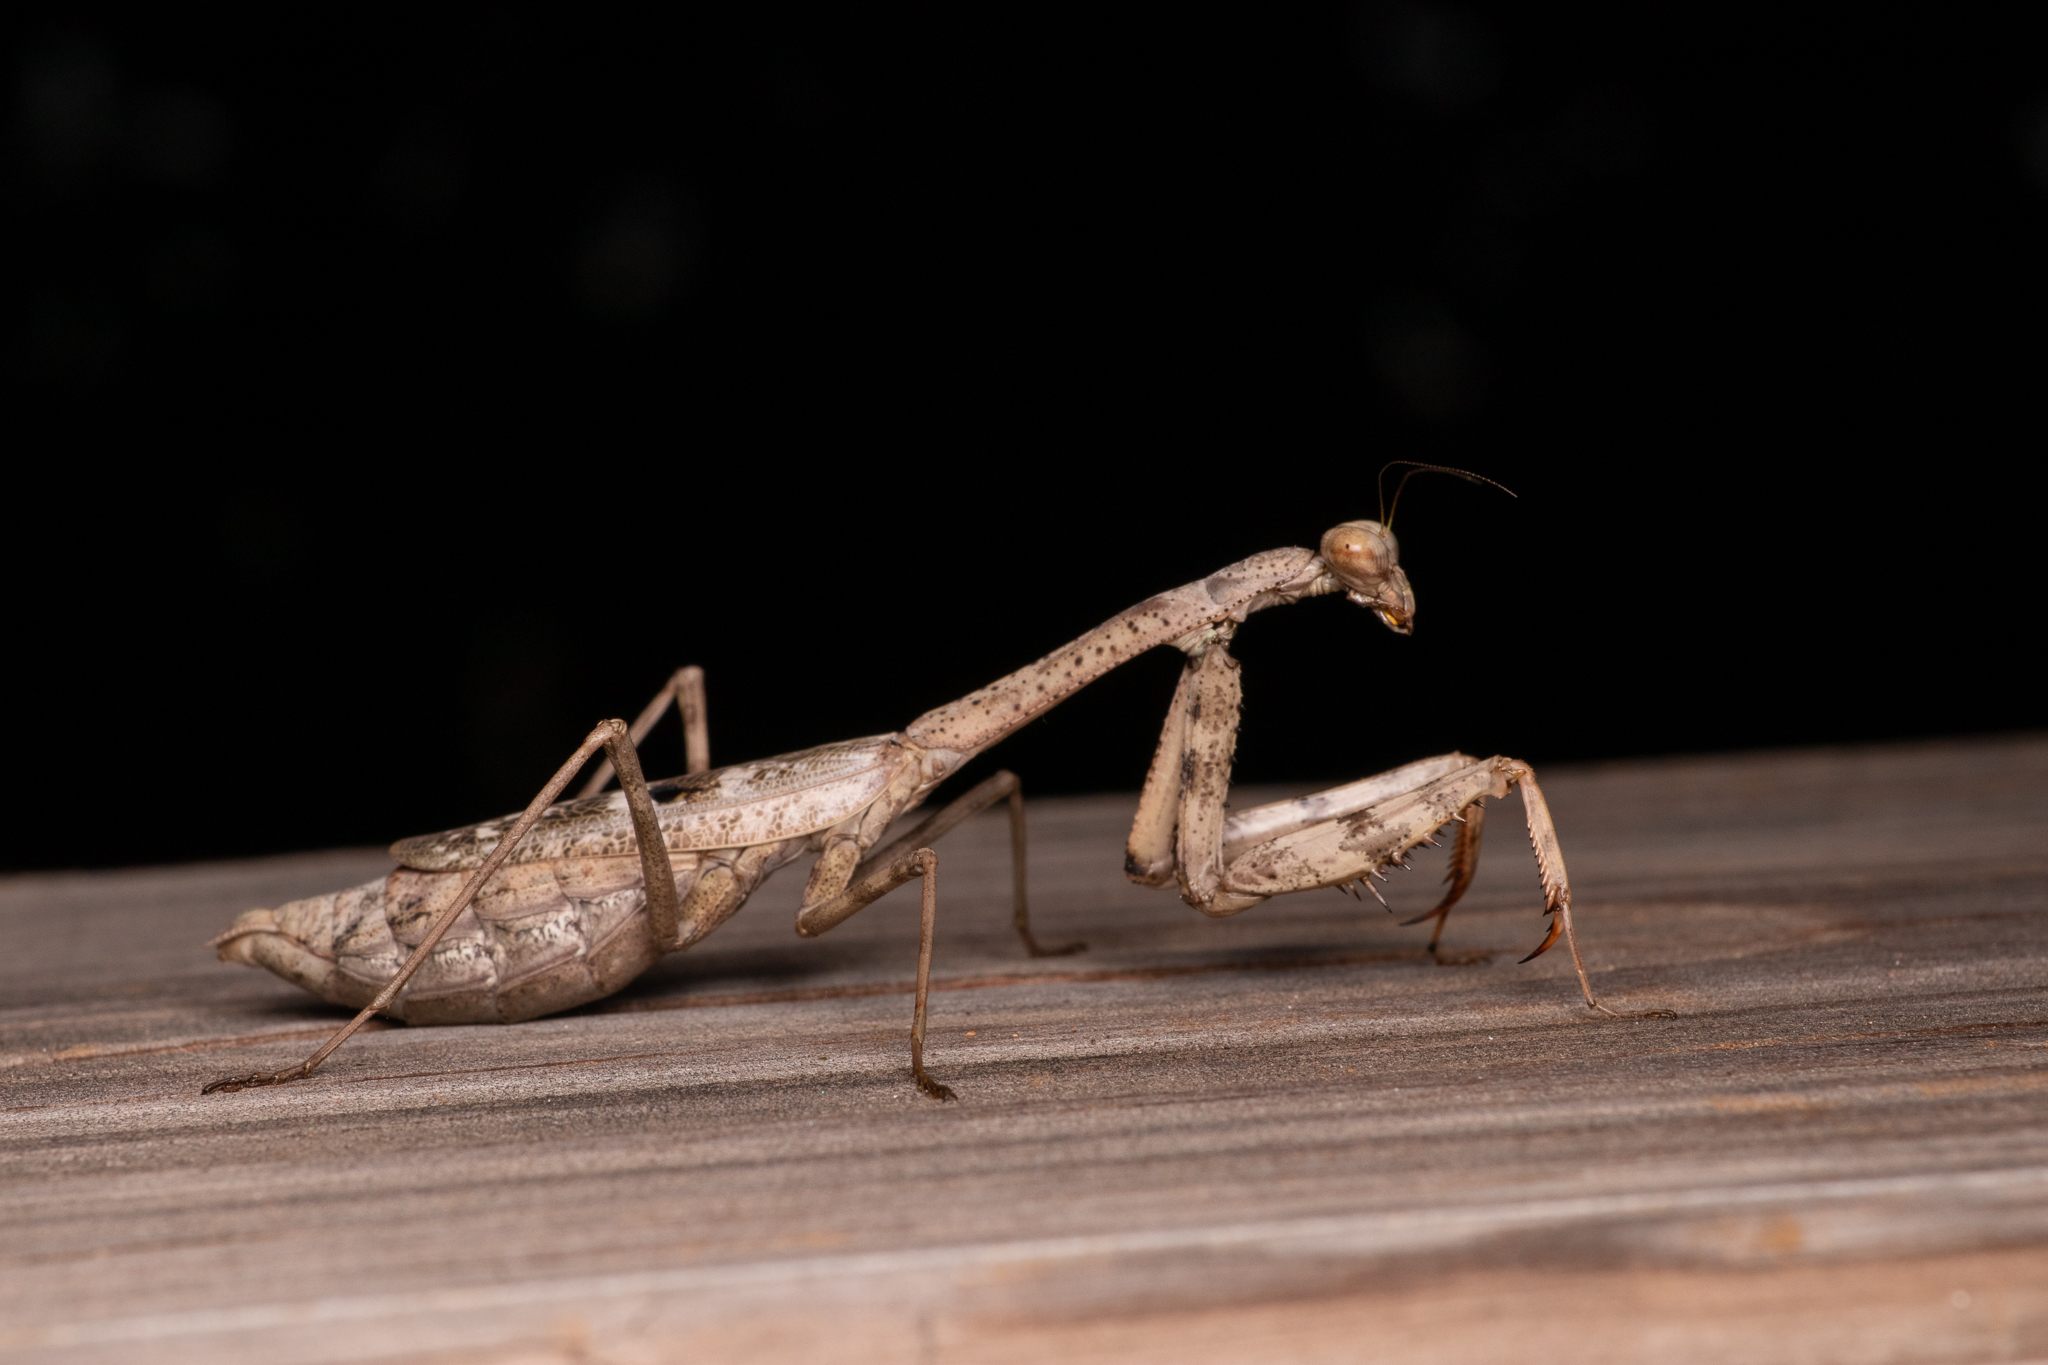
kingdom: Animalia
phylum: Arthropoda
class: Insecta
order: Mantodea
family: Mantidae
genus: Stagmomantis
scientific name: Stagmomantis carolina
